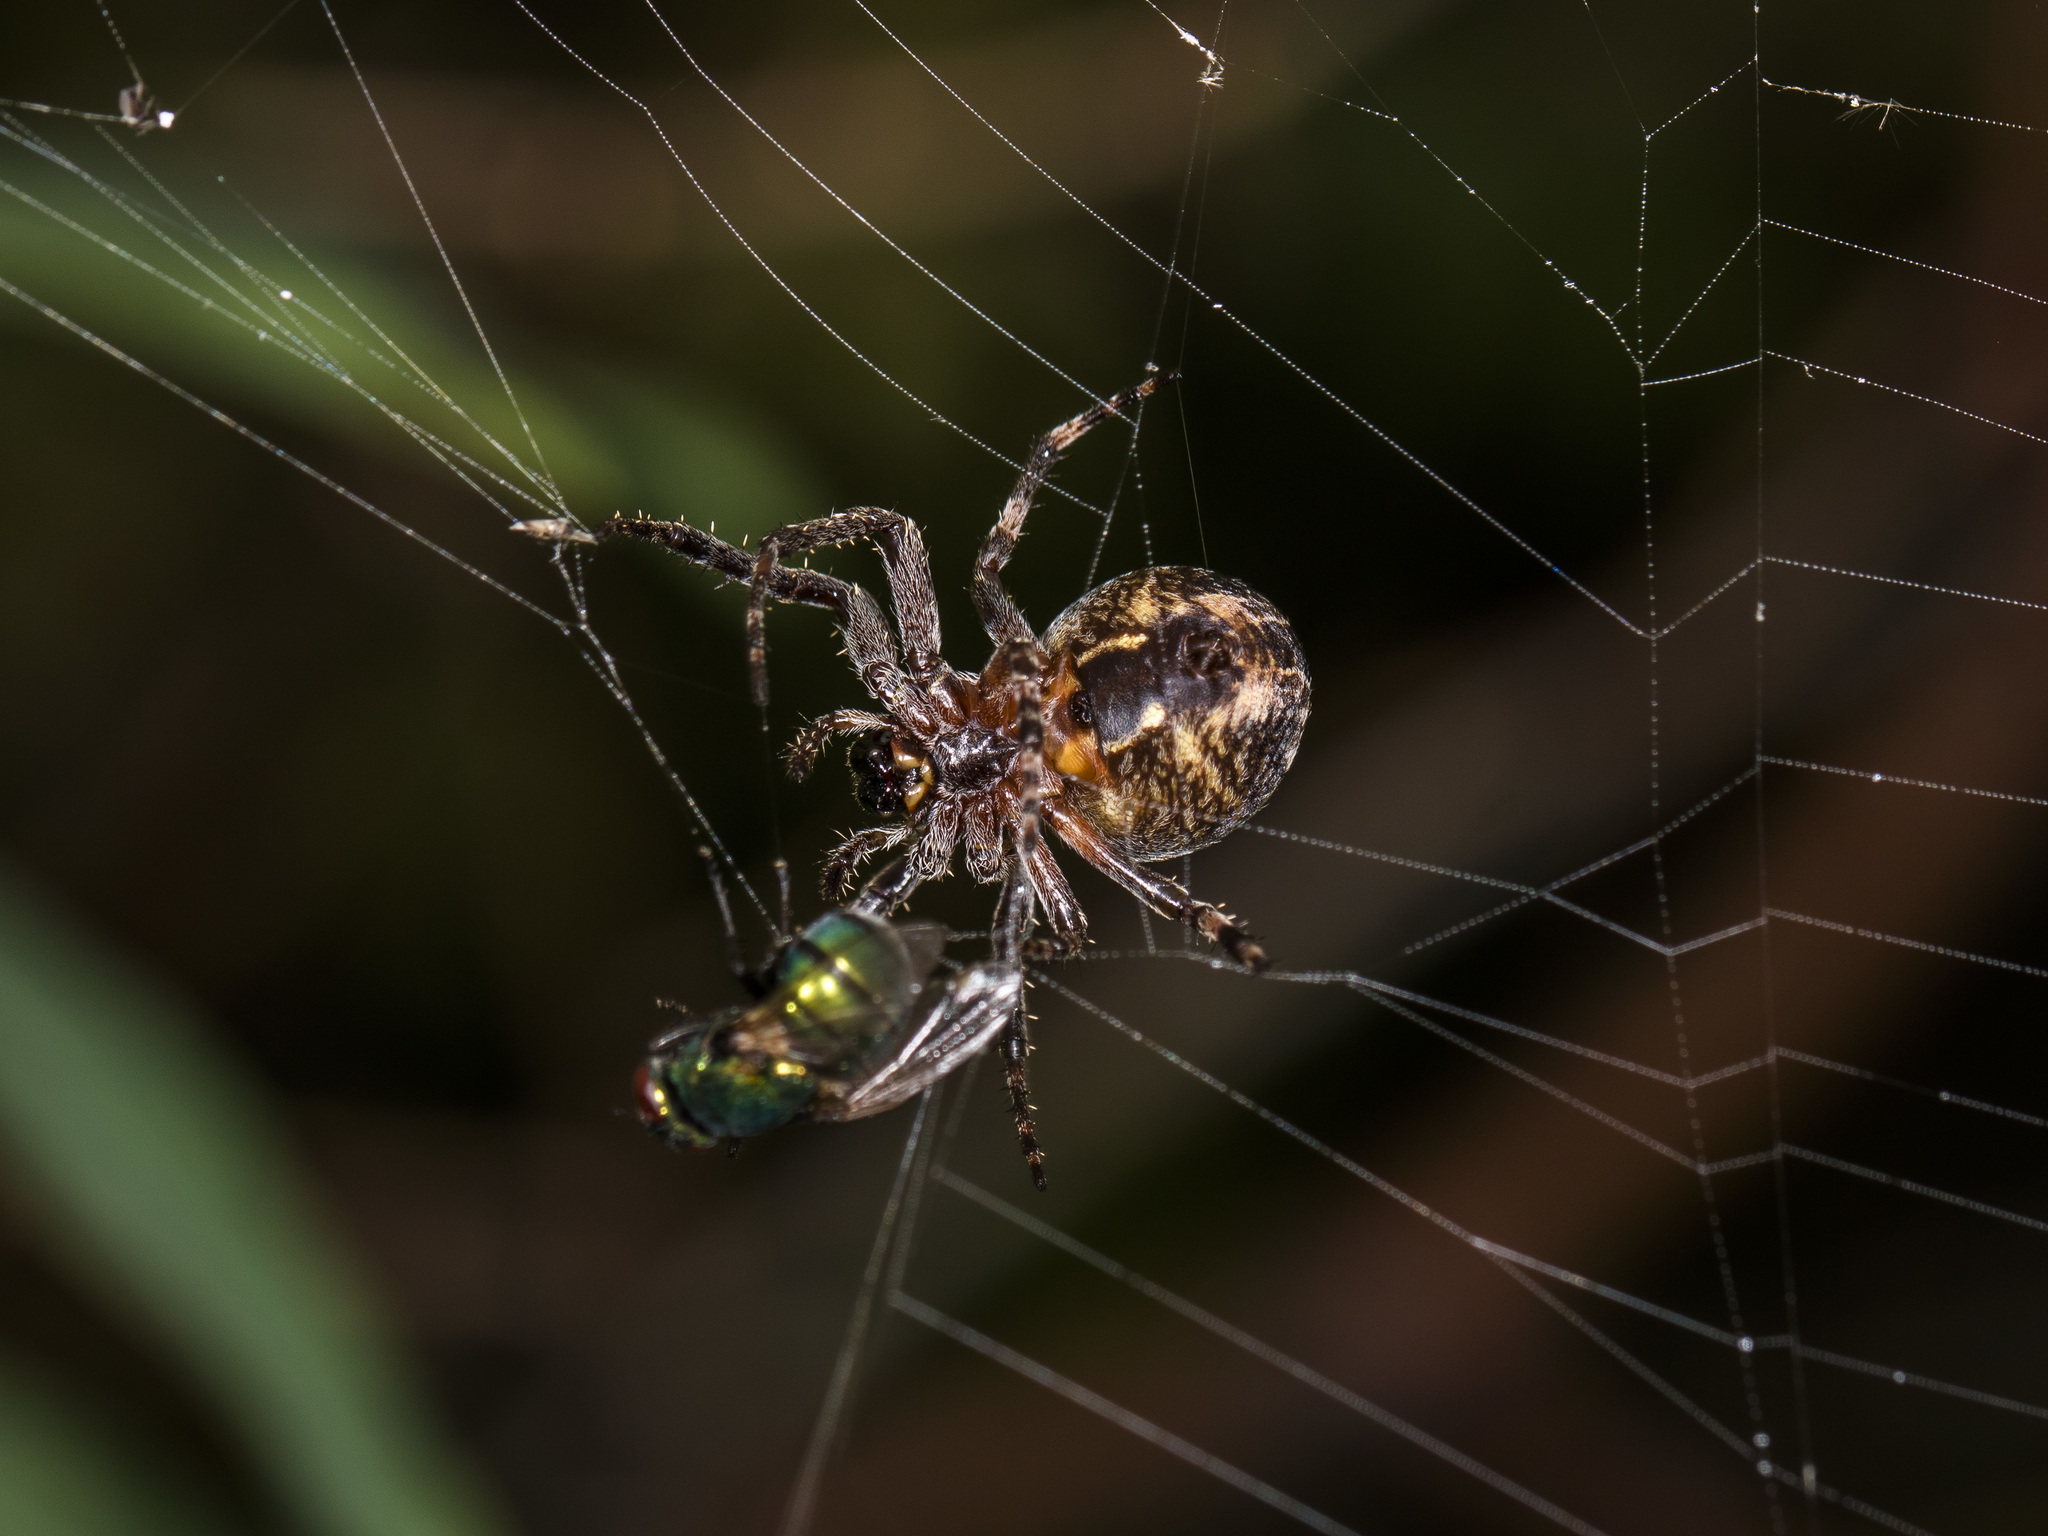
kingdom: Animalia
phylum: Arthropoda
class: Arachnida
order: Araneae
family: Araneidae
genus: Larinioides
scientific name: Larinioides patagiatus
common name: Ornamental orbweaver
